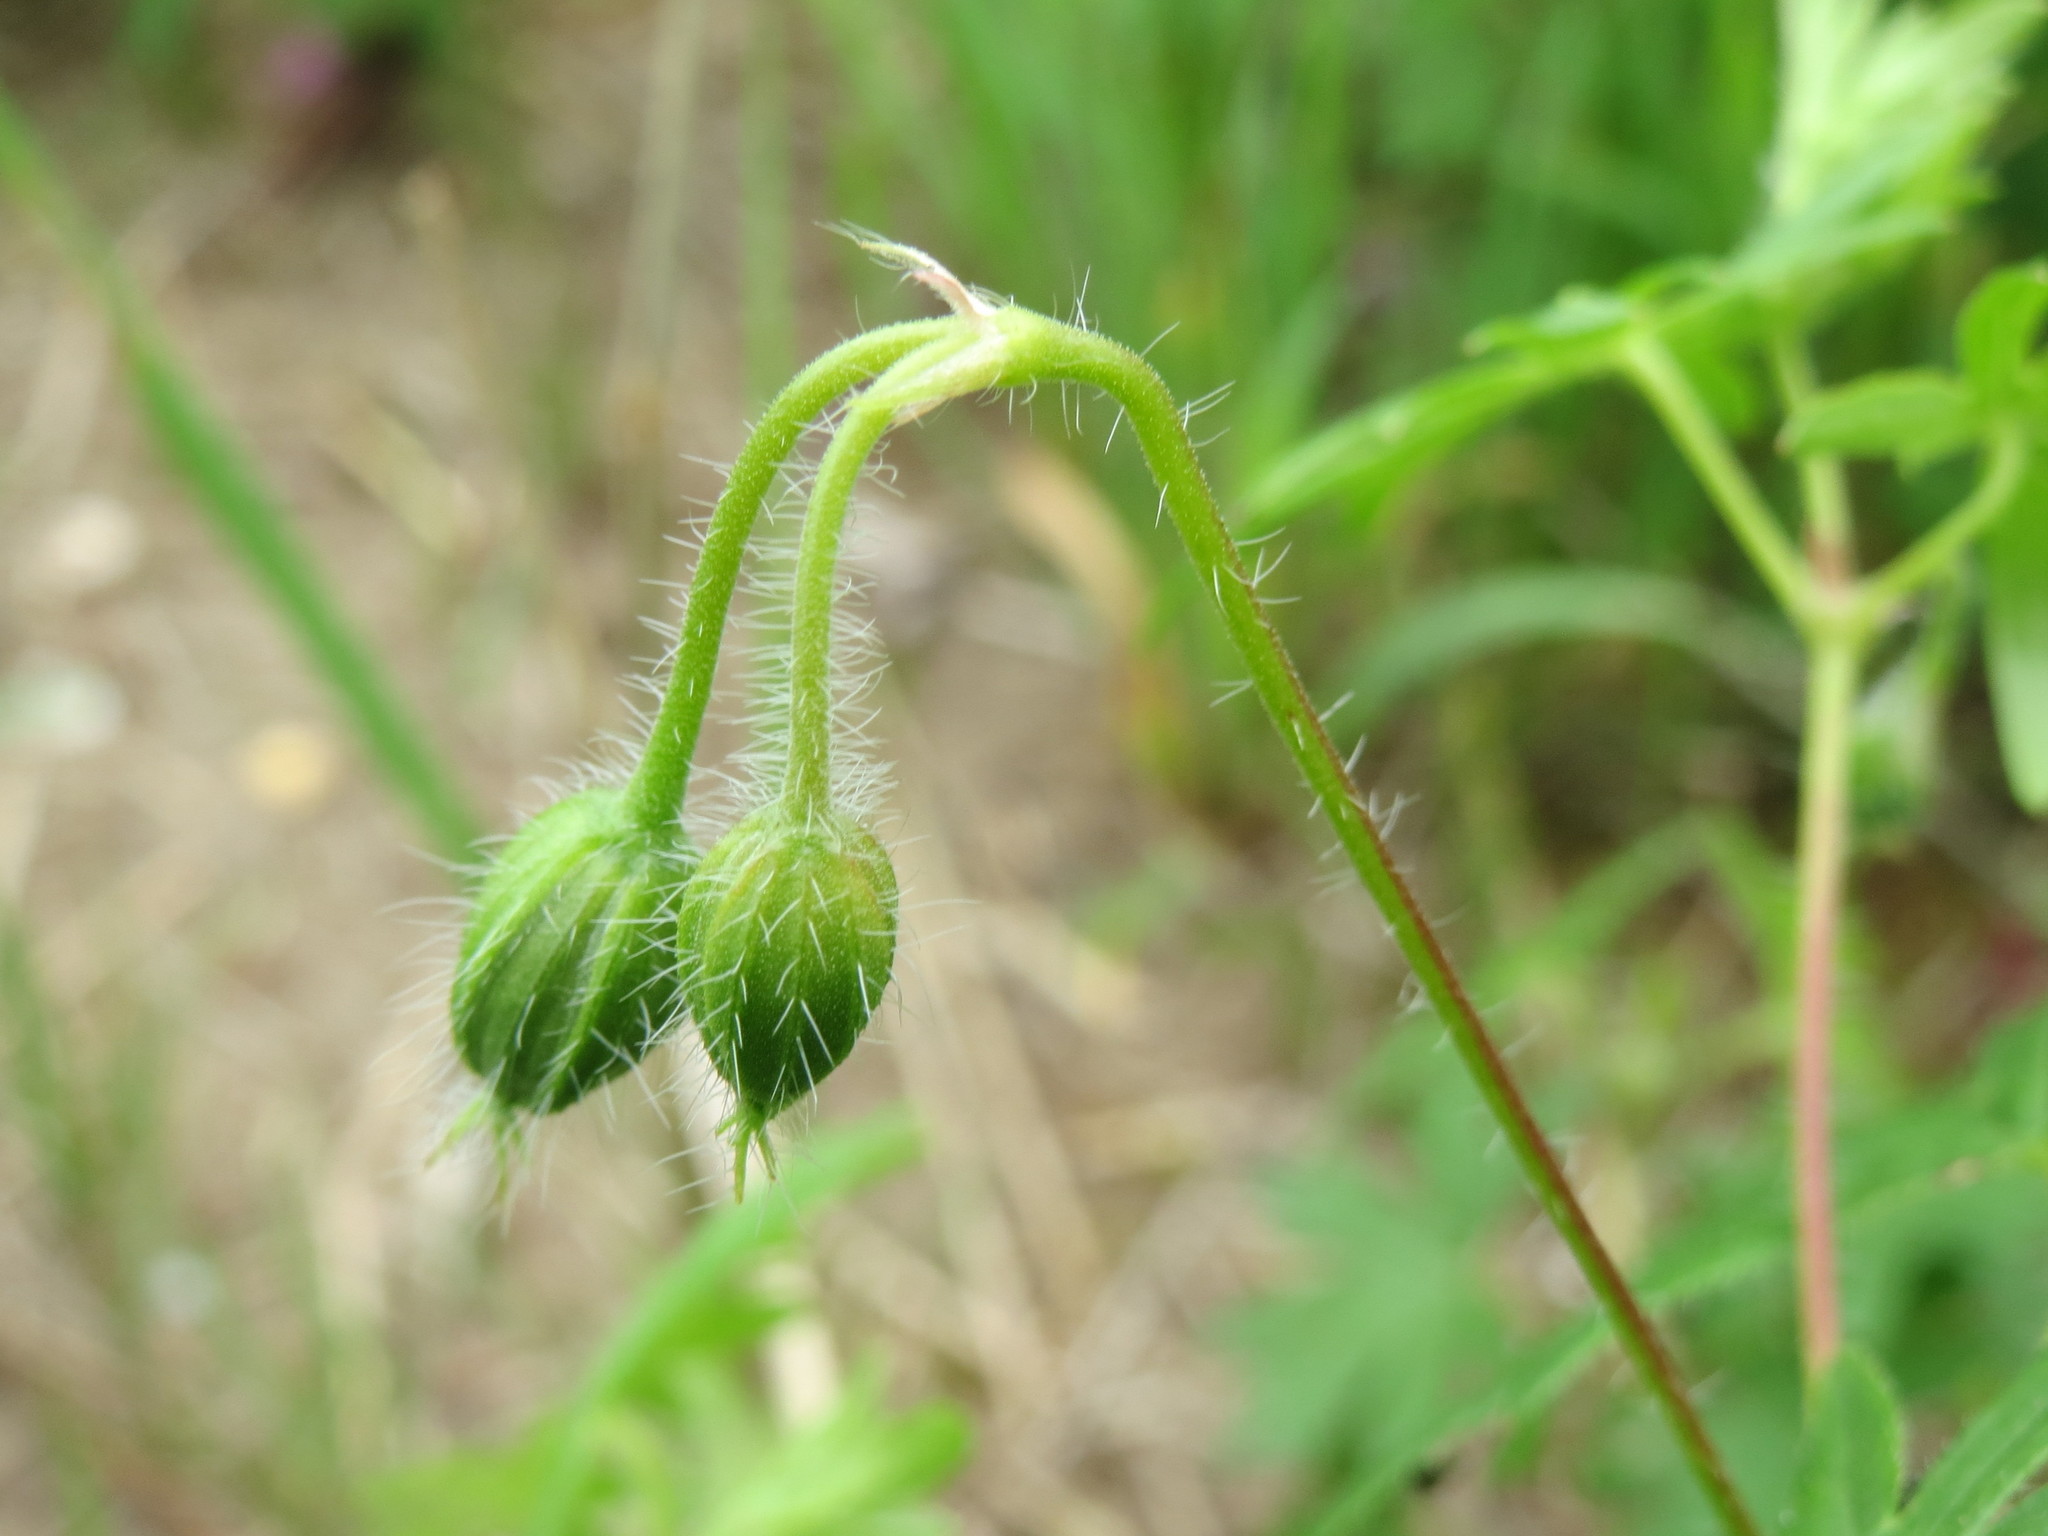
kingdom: Plantae
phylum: Tracheophyta
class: Magnoliopsida
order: Geraniales
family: Geraniaceae
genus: Geranium
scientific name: Geranium sanguineum
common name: Bloody crane's-bill
